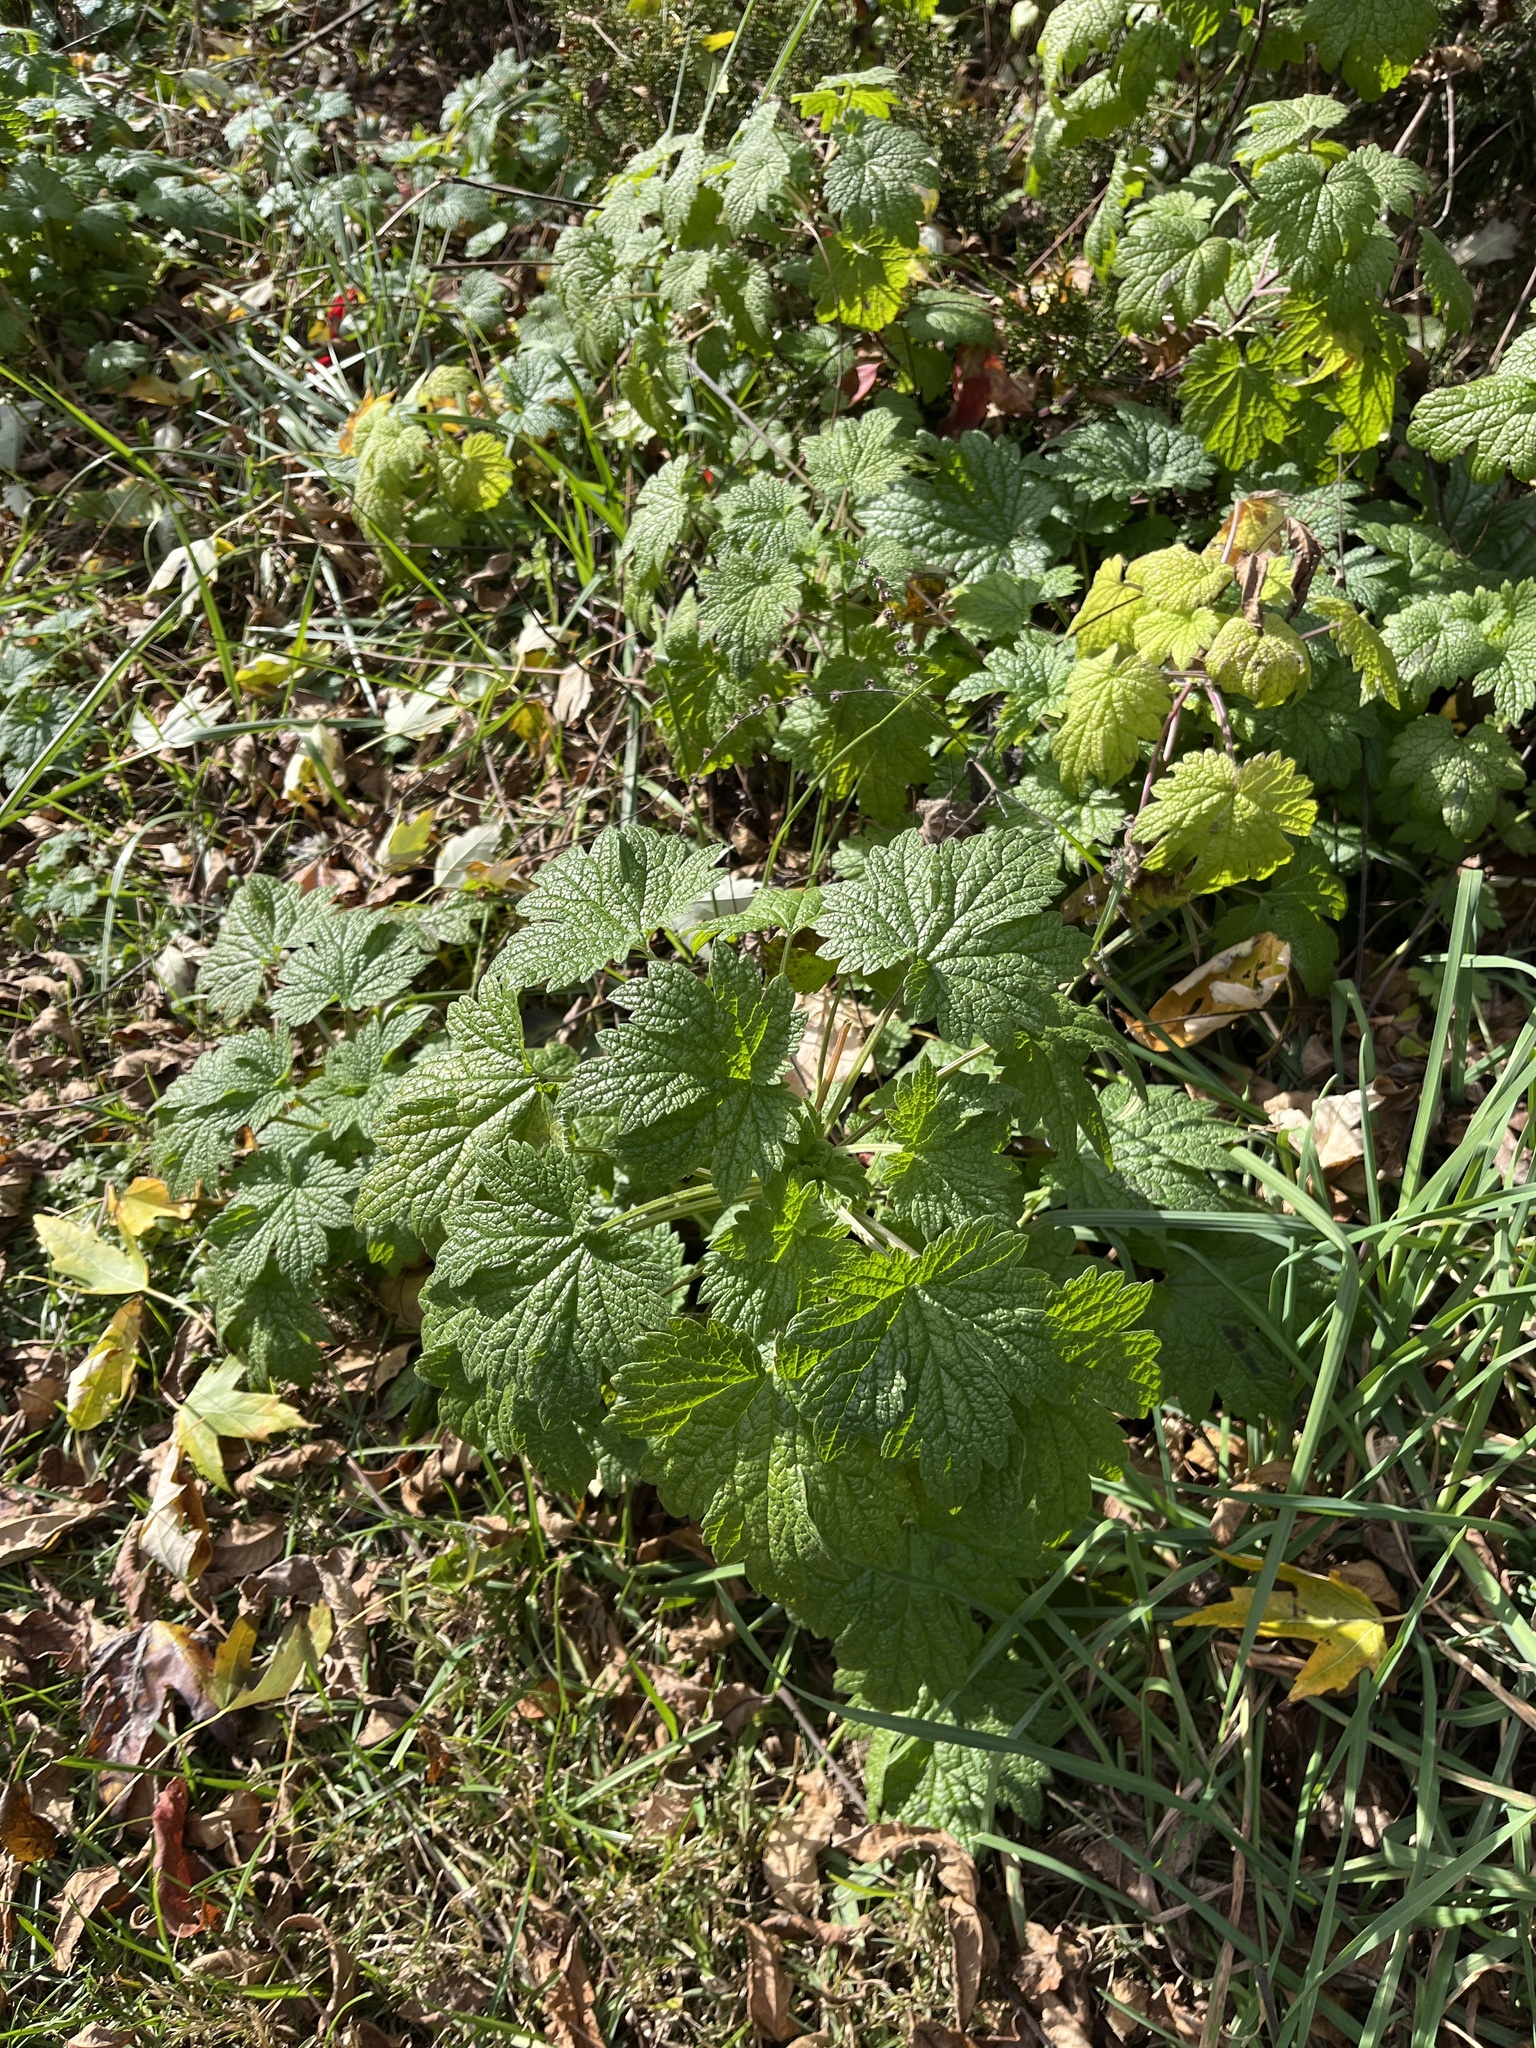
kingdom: Plantae
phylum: Tracheophyta
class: Magnoliopsida
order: Lamiales
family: Lamiaceae
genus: Leonurus
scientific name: Leonurus cardiaca
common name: Motherwort
